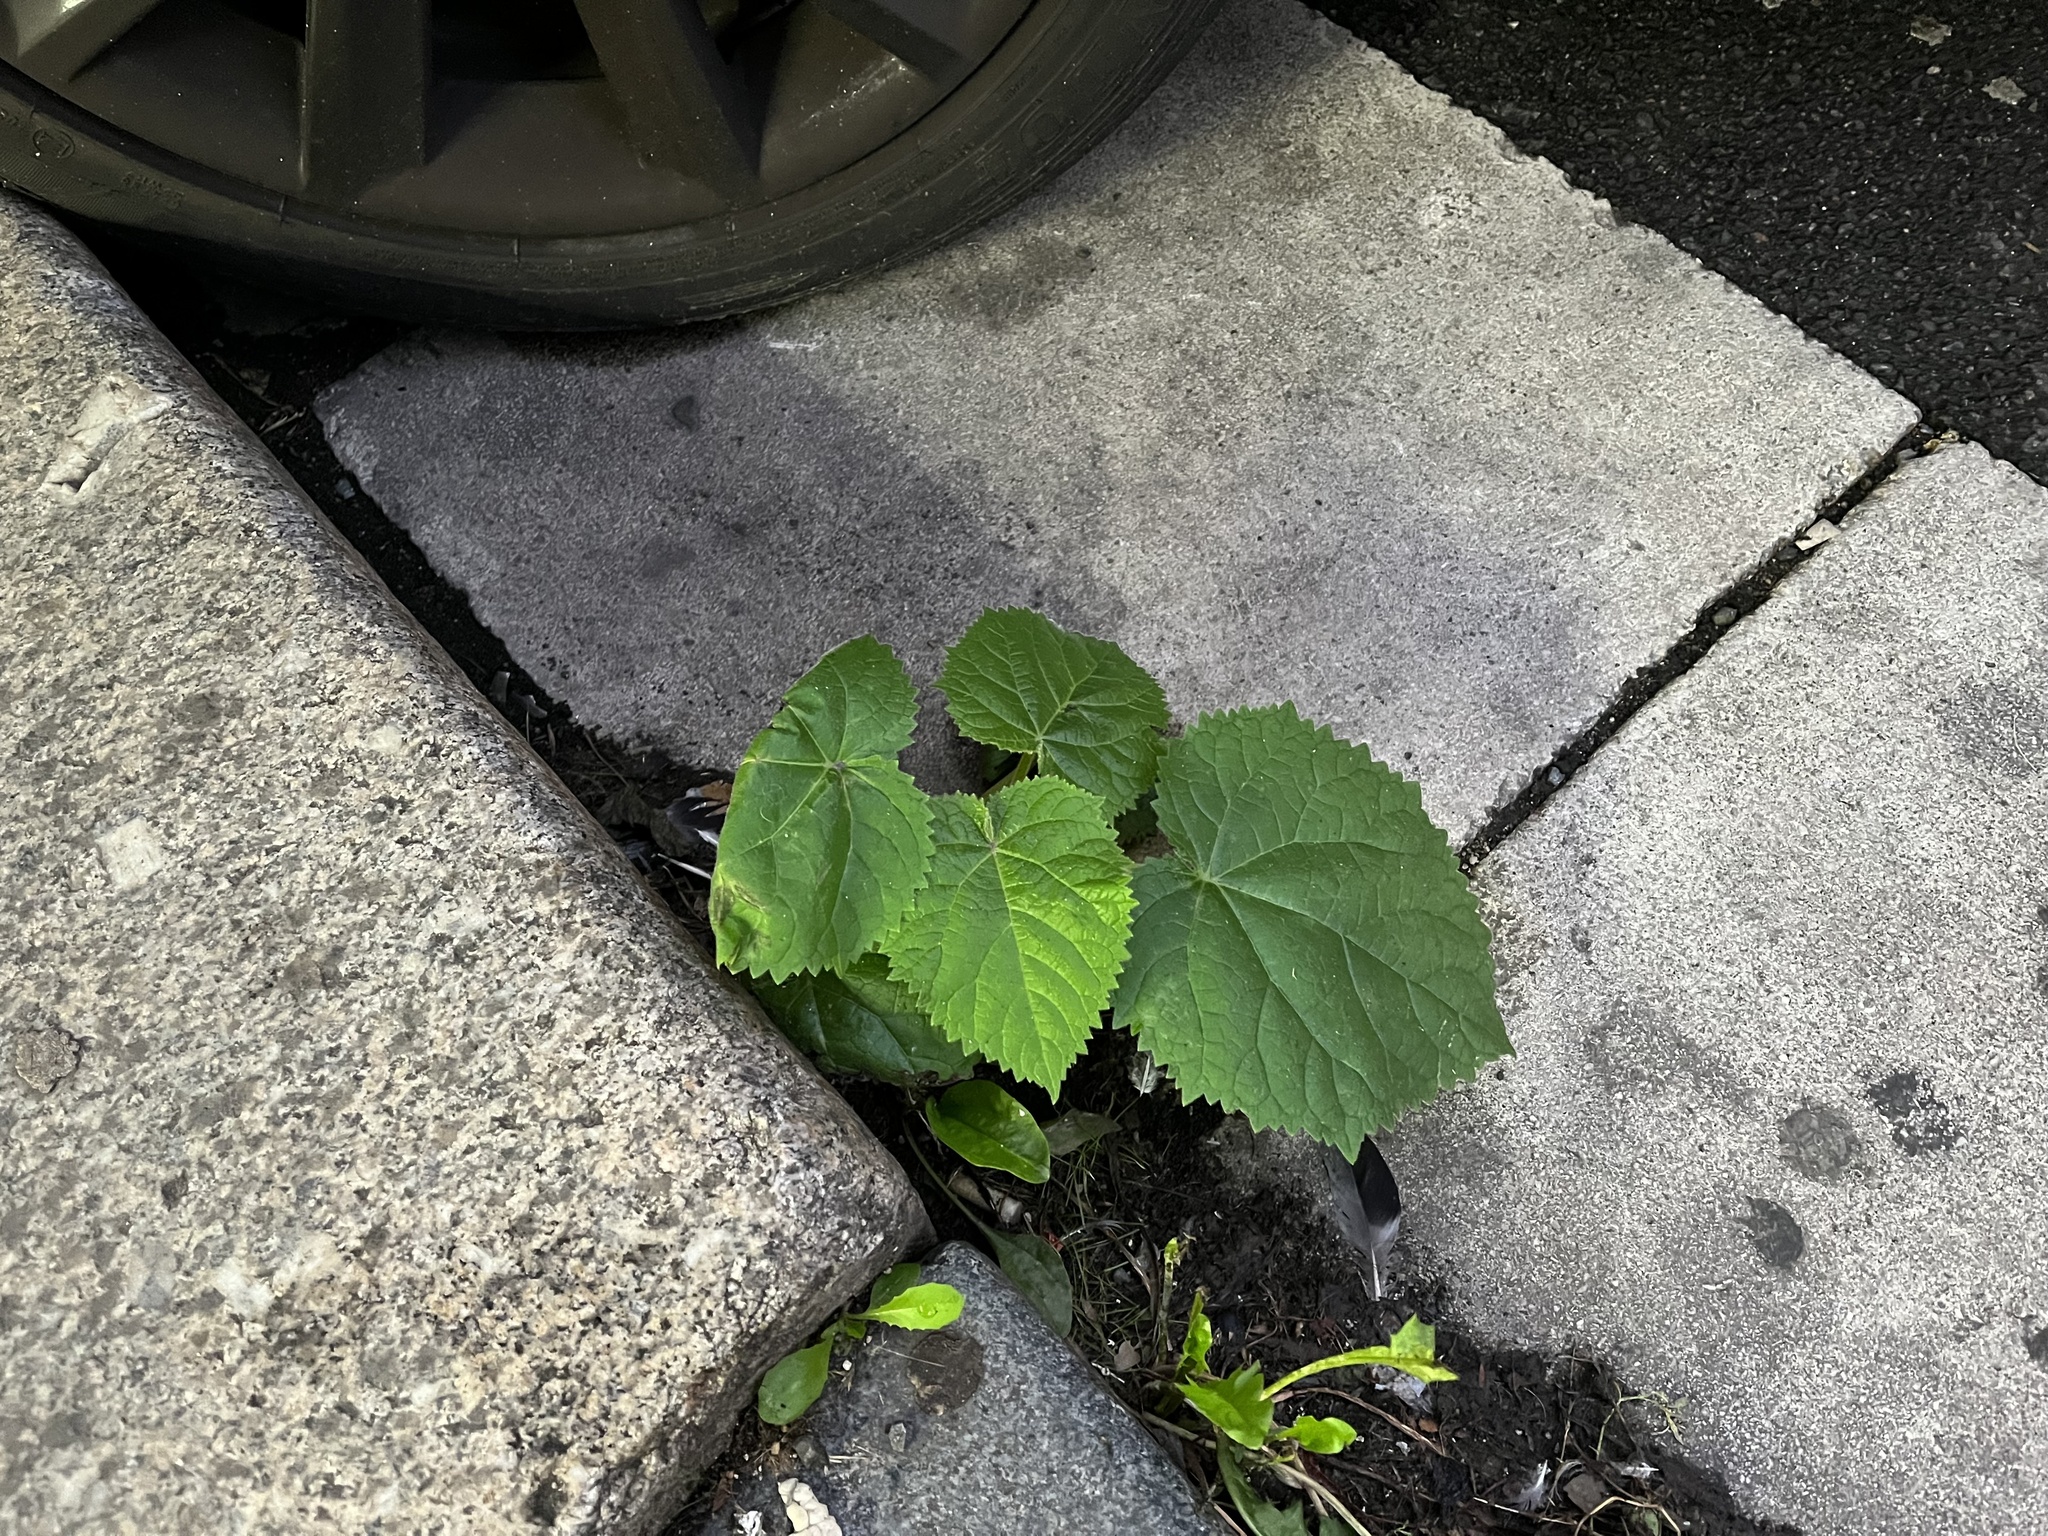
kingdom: Plantae
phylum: Tracheophyta
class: Magnoliopsida
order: Lamiales
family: Paulowniaceae
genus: Paulownia
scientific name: Paulownia tomentosa
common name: Foxglove-tree
